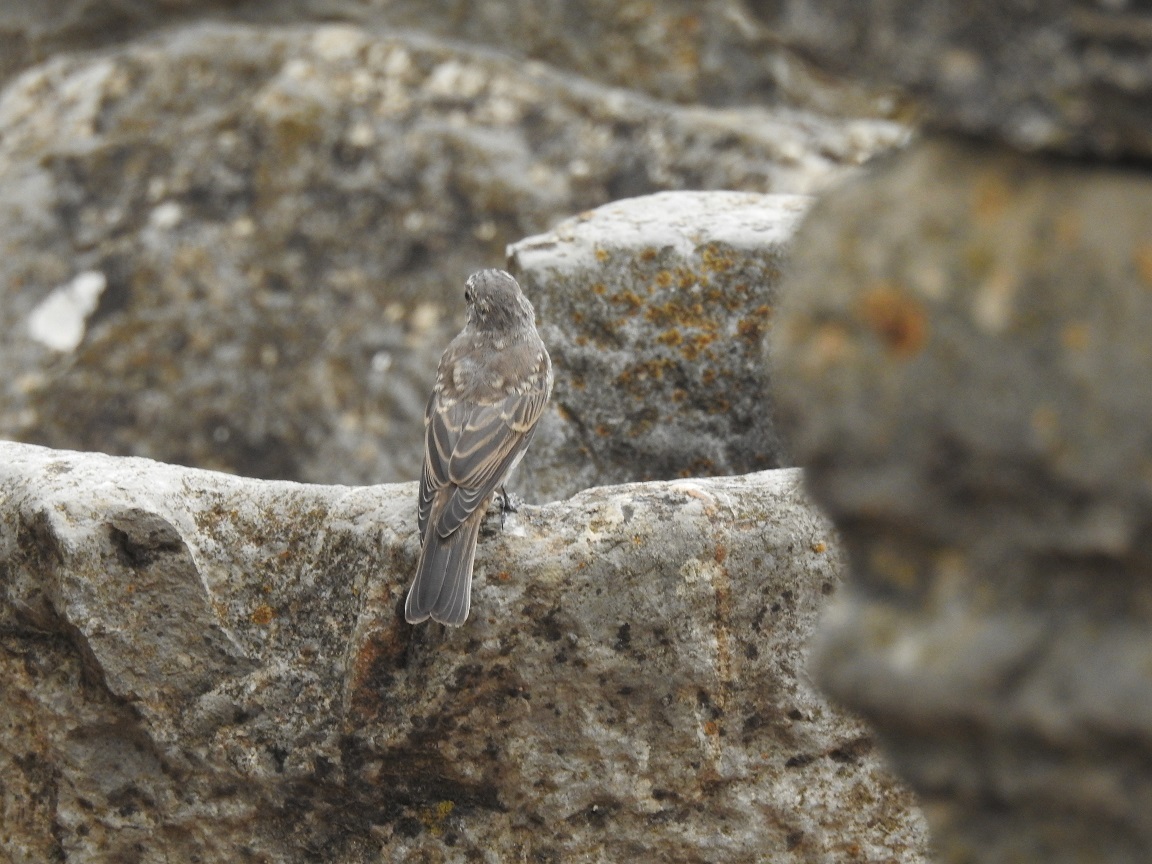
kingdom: Animalia
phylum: Chordata
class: Aves
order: Passeriformes
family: Muscicapidae
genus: Muscicapa
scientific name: Muscicapa striata
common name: Spotted flycatcher
